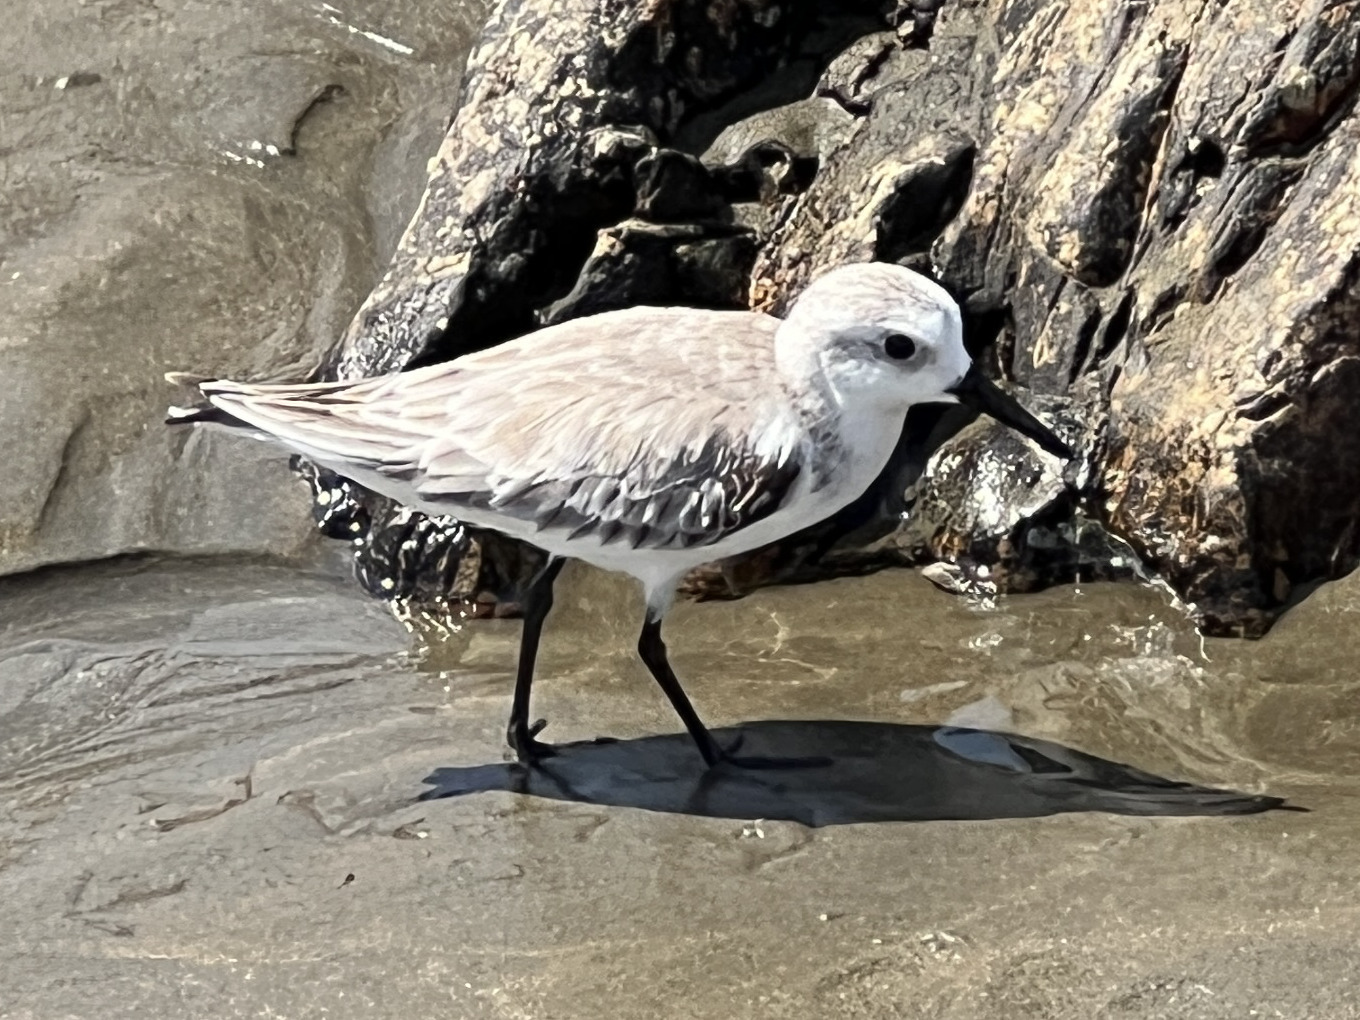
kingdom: Animalia
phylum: Chordata
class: Aves
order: Charadriiformes
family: Scolopacidae
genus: Calidris
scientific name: Calidris alba
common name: Sanderling
